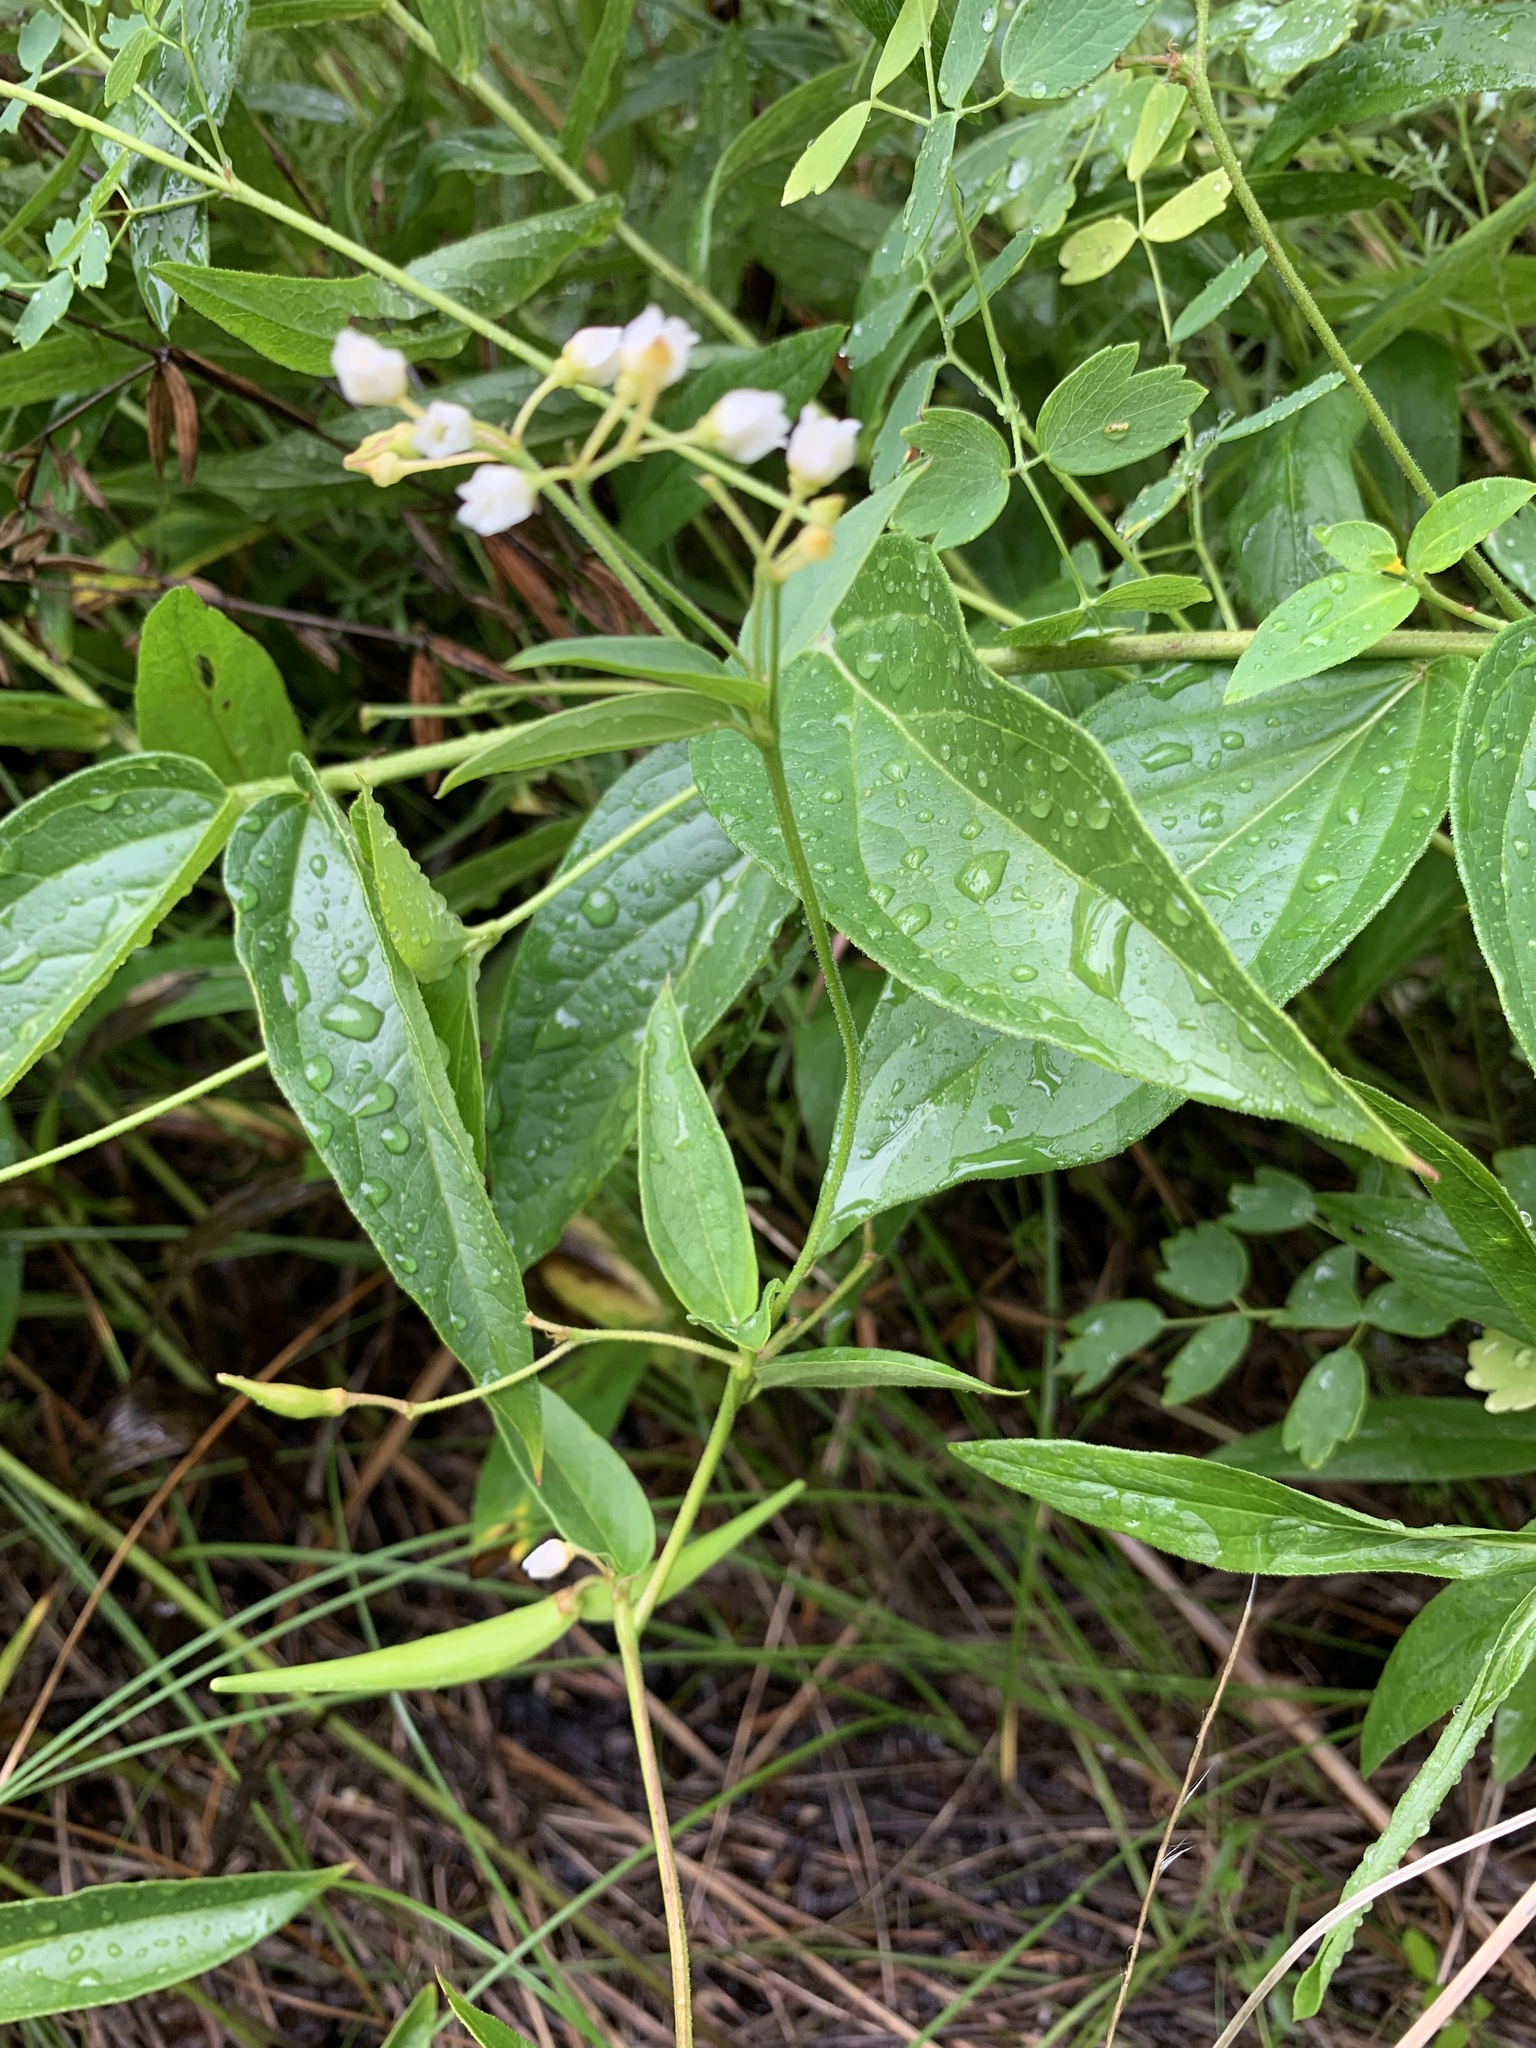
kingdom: Plantae
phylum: Tracheophyta
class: Magnoliopsida
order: Gentianales
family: Apocynaceae
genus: Vincetoxicum
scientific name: Vincetoxicum hirundinaria
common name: White swallowwort
